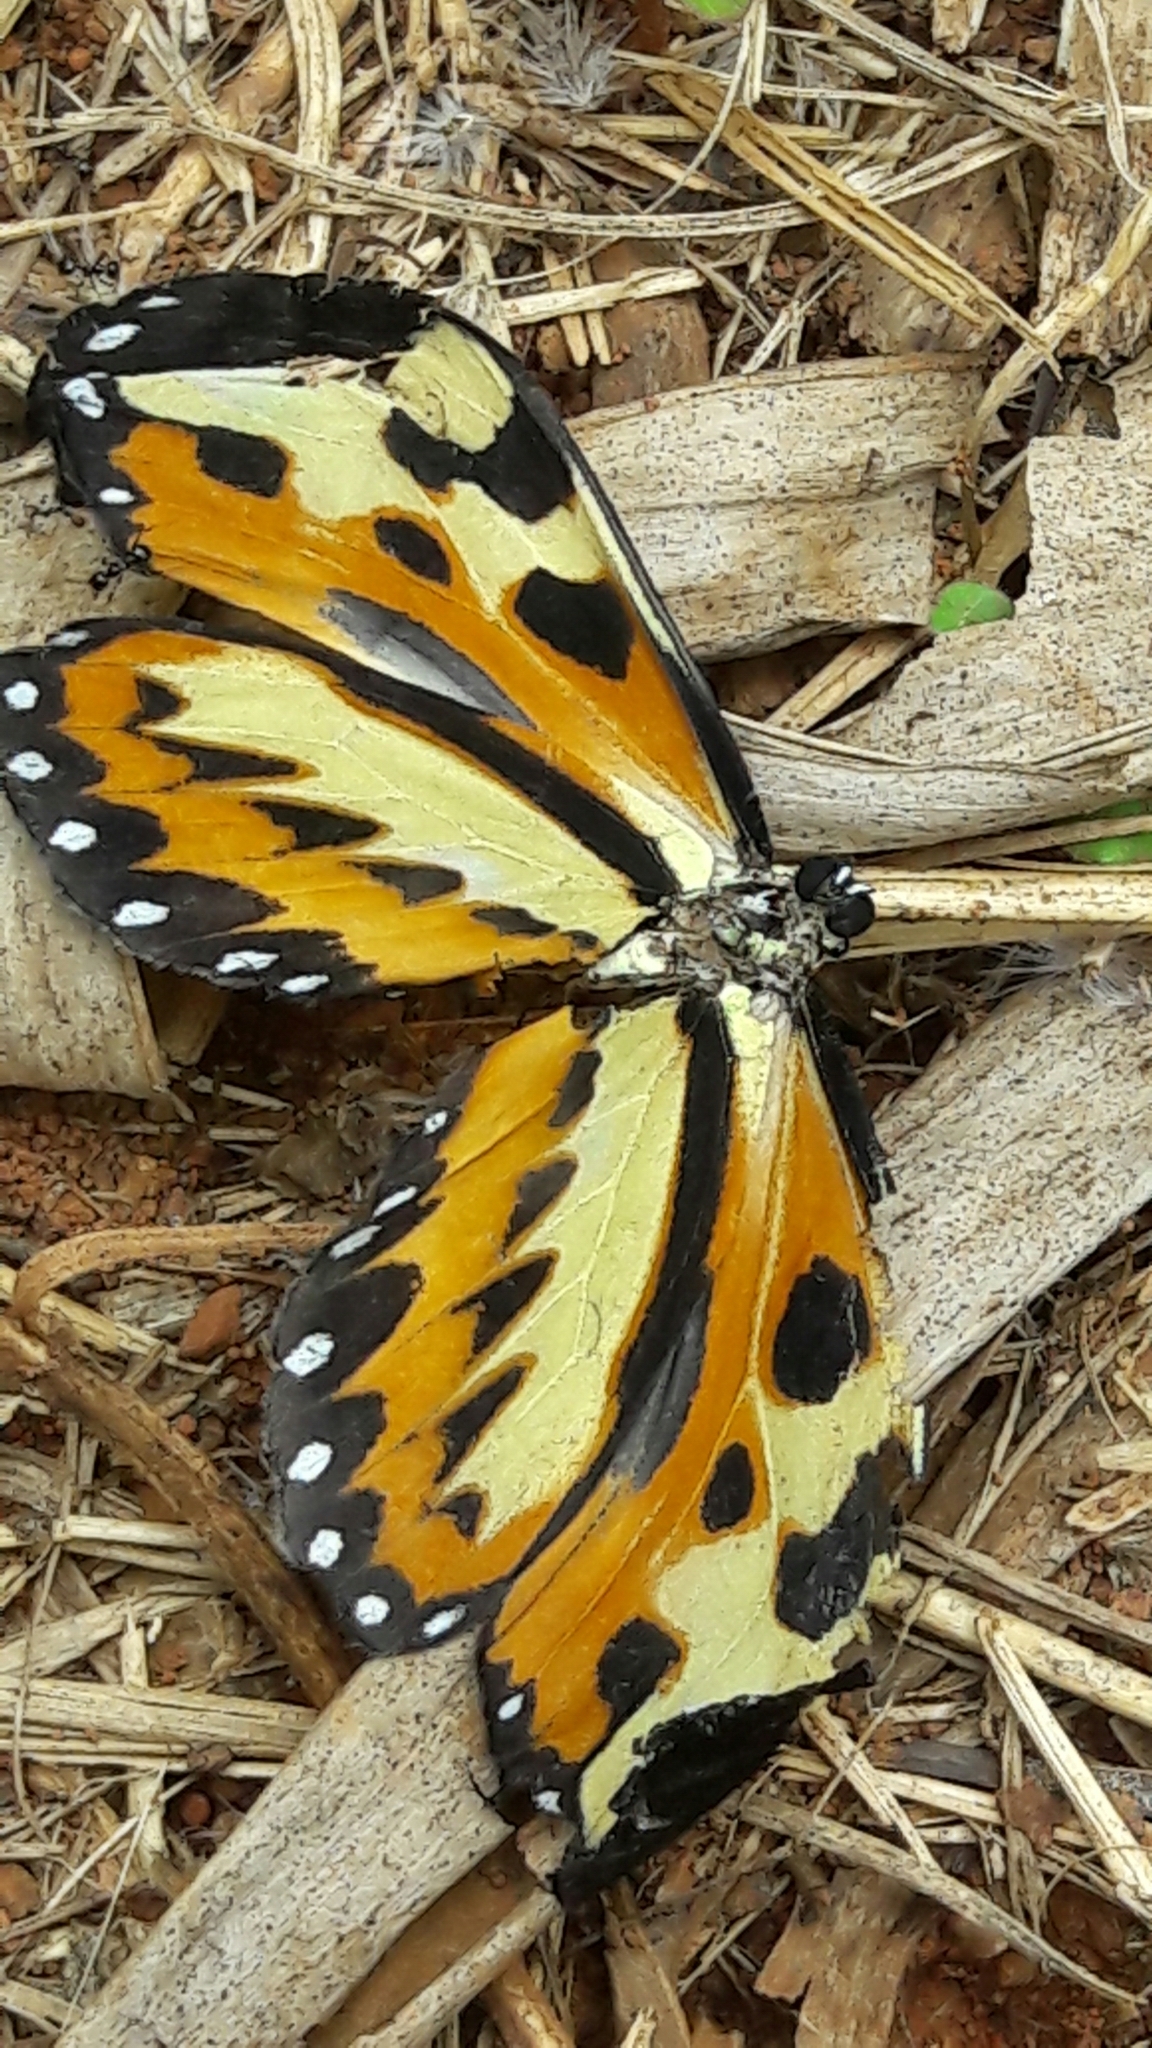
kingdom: Animalia
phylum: Arthropoda
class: Insecta
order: Lepidoptera
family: Nymphalidae
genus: Mechanitis
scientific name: Mechanitis polymnia
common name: Disturbed tigerwing
